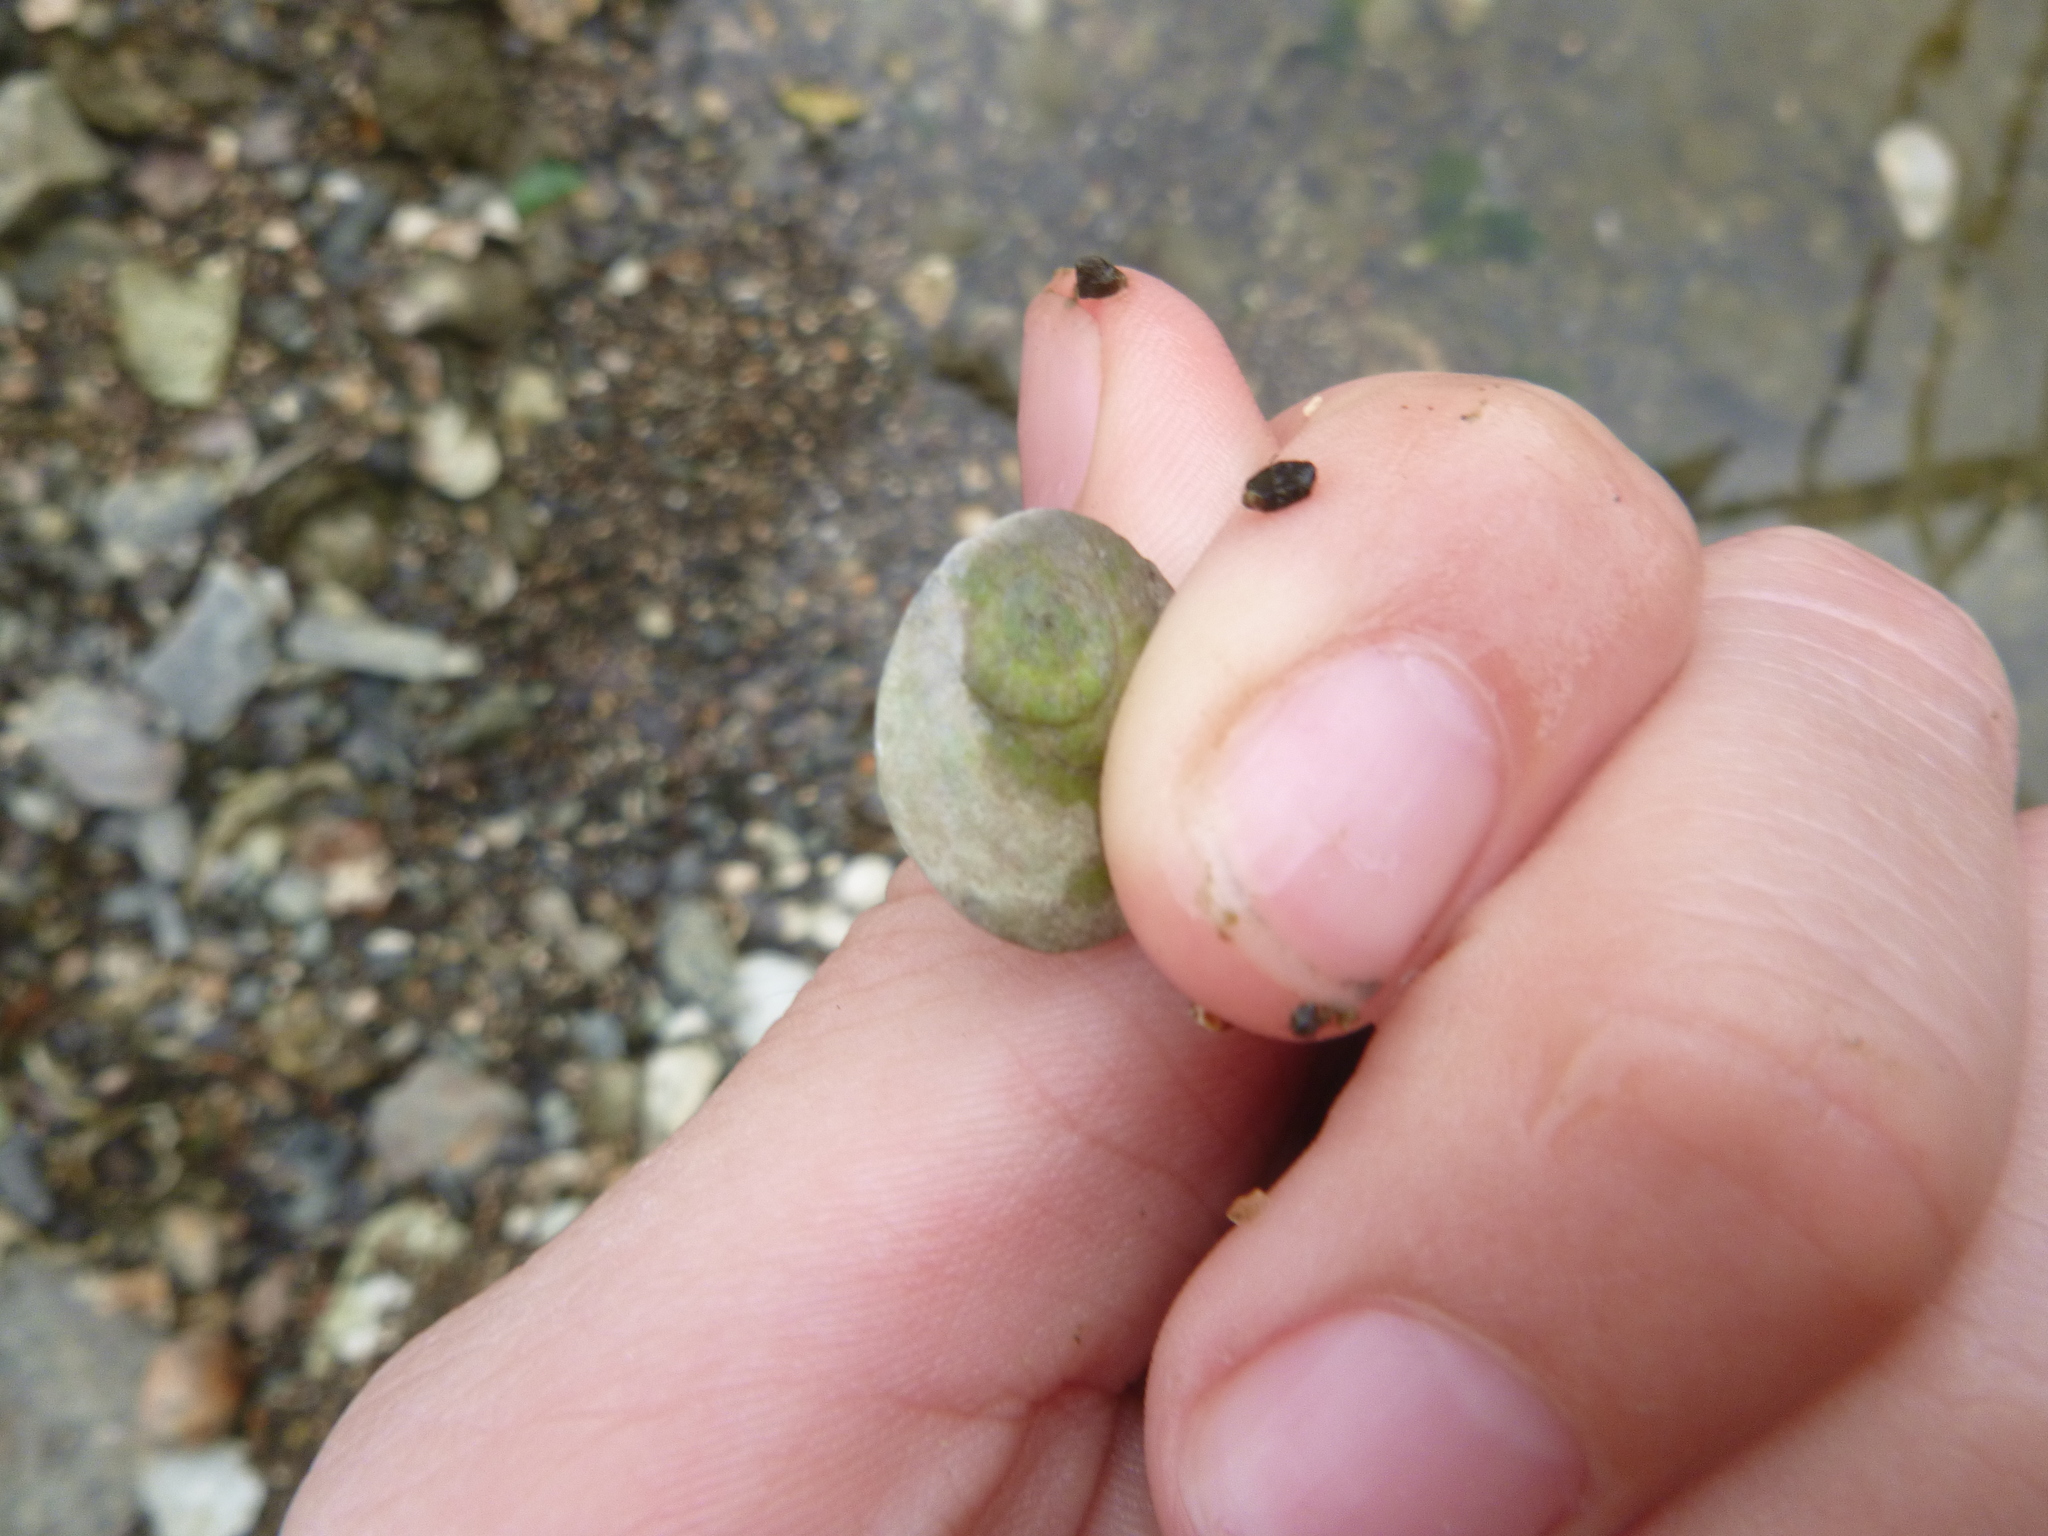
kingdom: Animalia
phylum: Mollusca
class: Gastropoda
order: Trochida
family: Turbinidae
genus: Lunella
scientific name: Lunella smaragda
